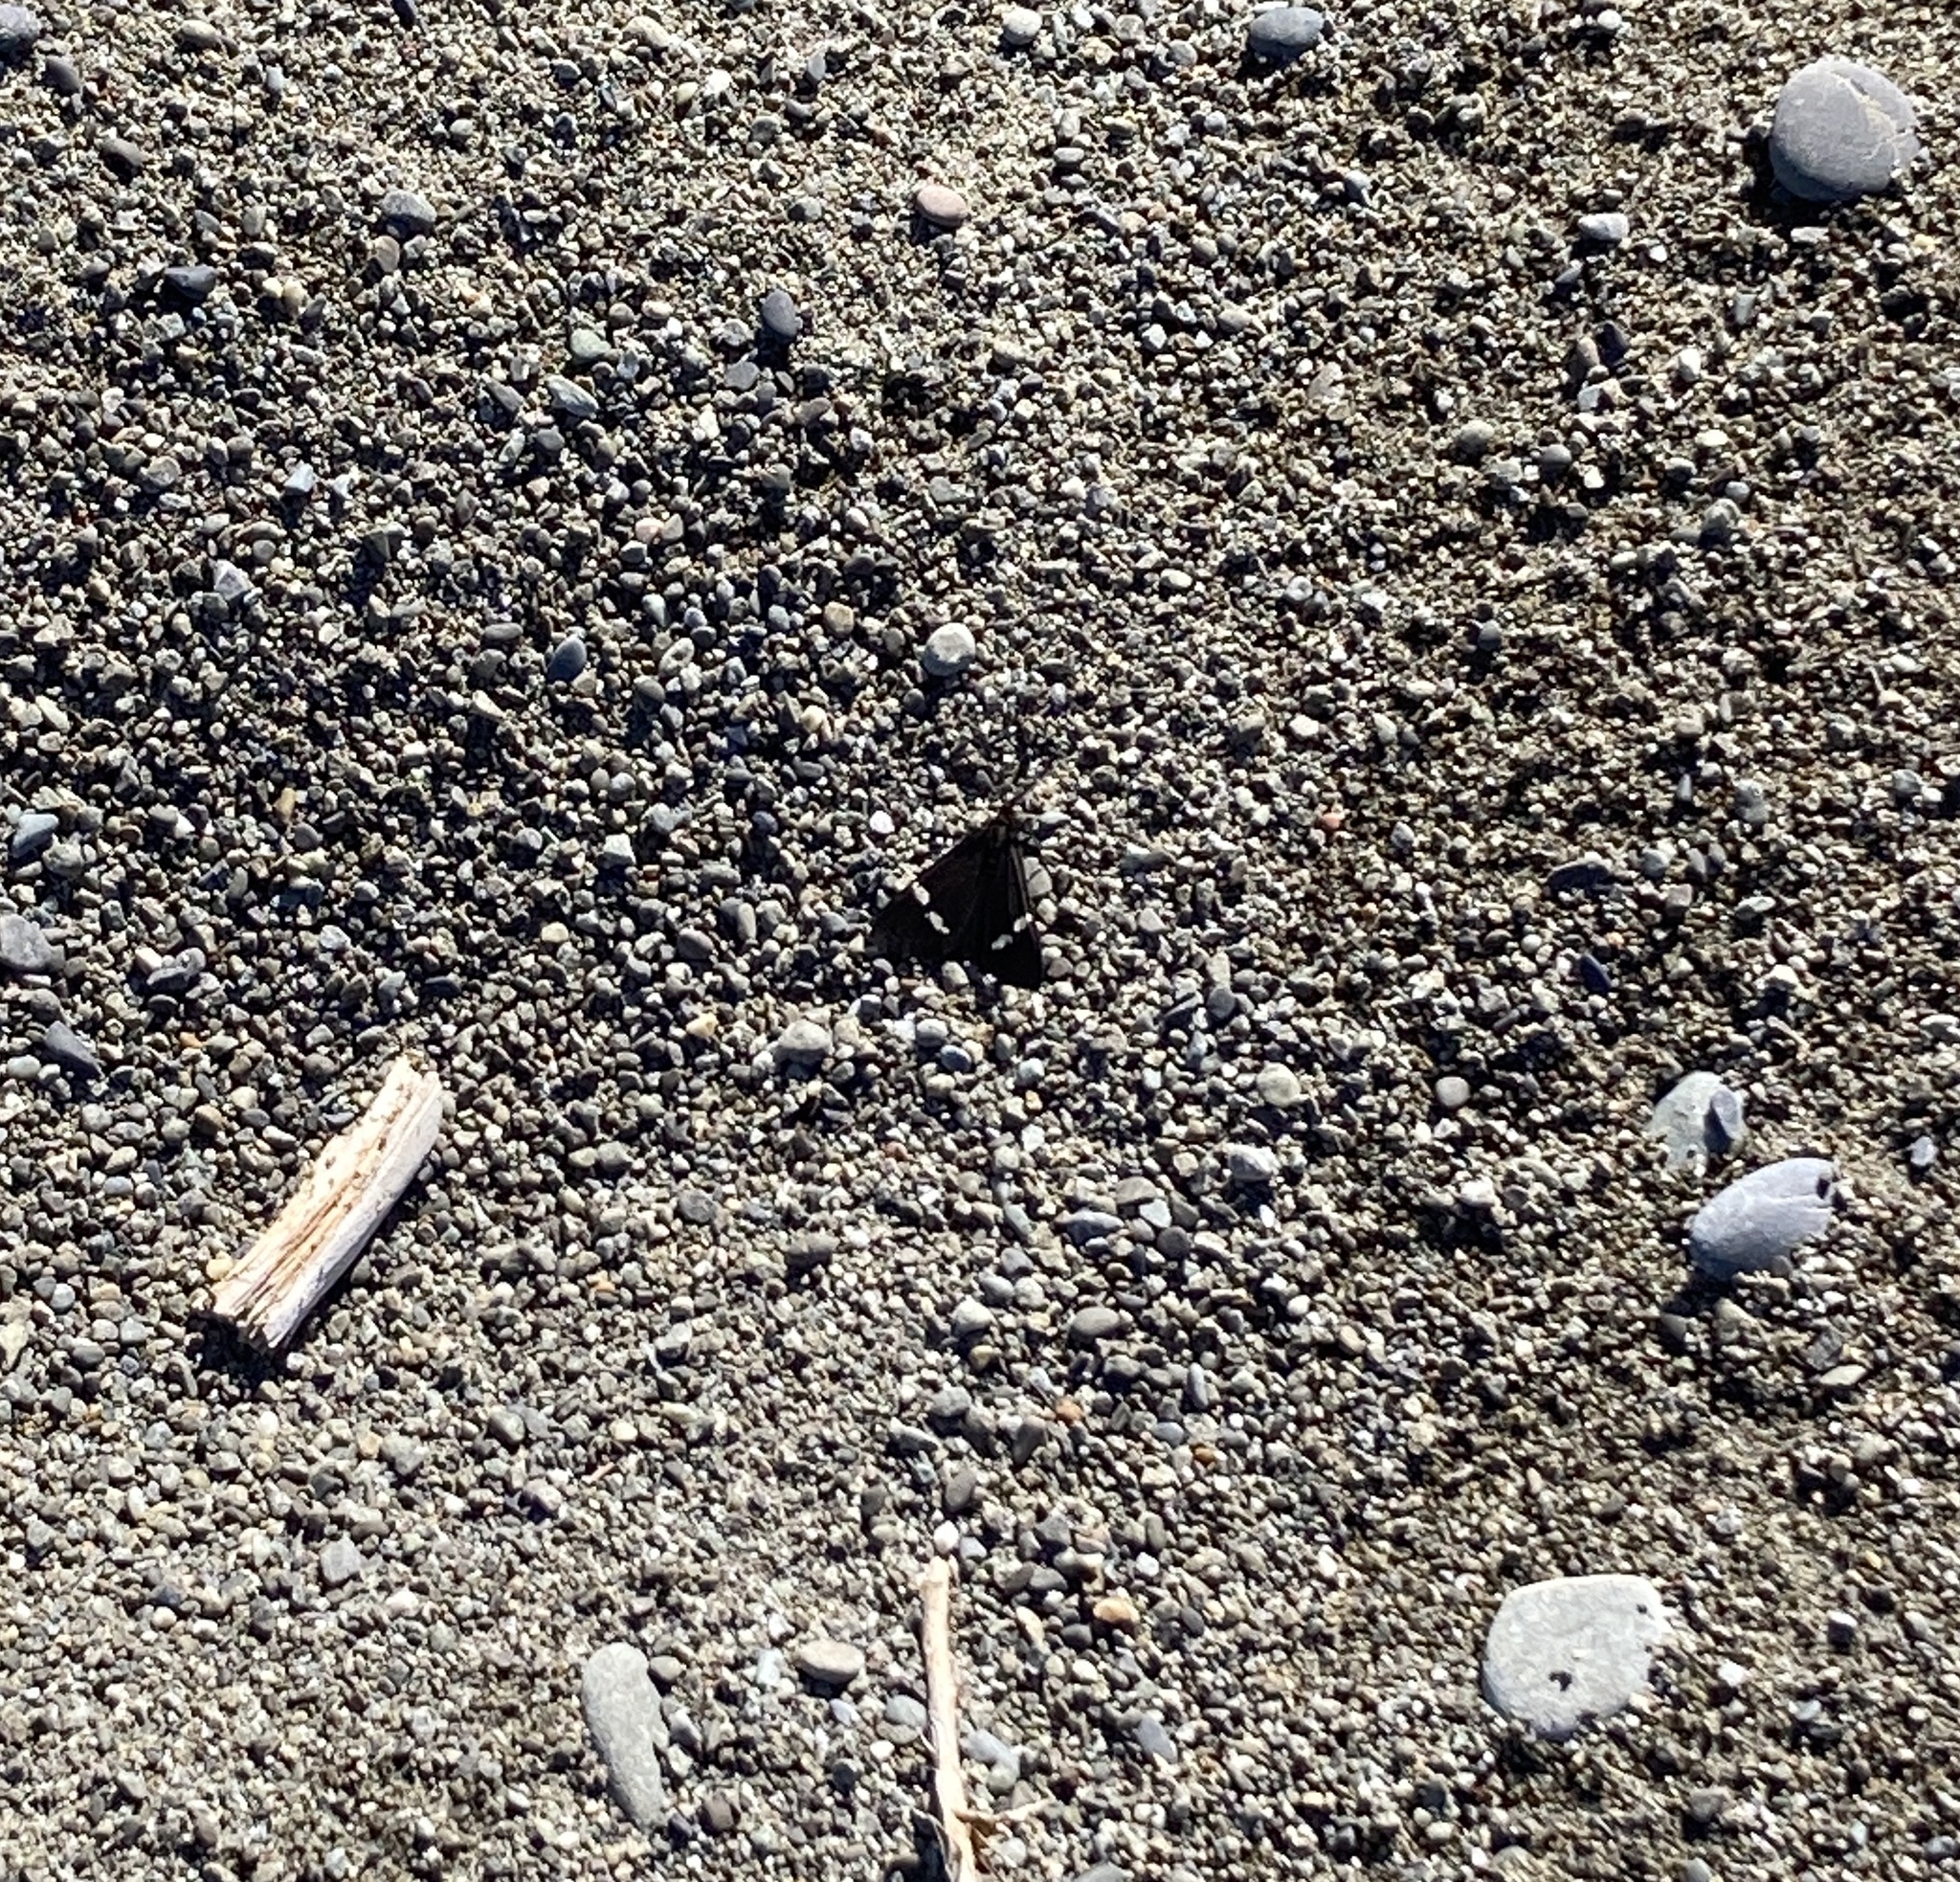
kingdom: Animalia
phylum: Arthropoda
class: Insecta
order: Lepidoptera
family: Erebidae
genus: Nyctemera
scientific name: Nyctemera annulatum
